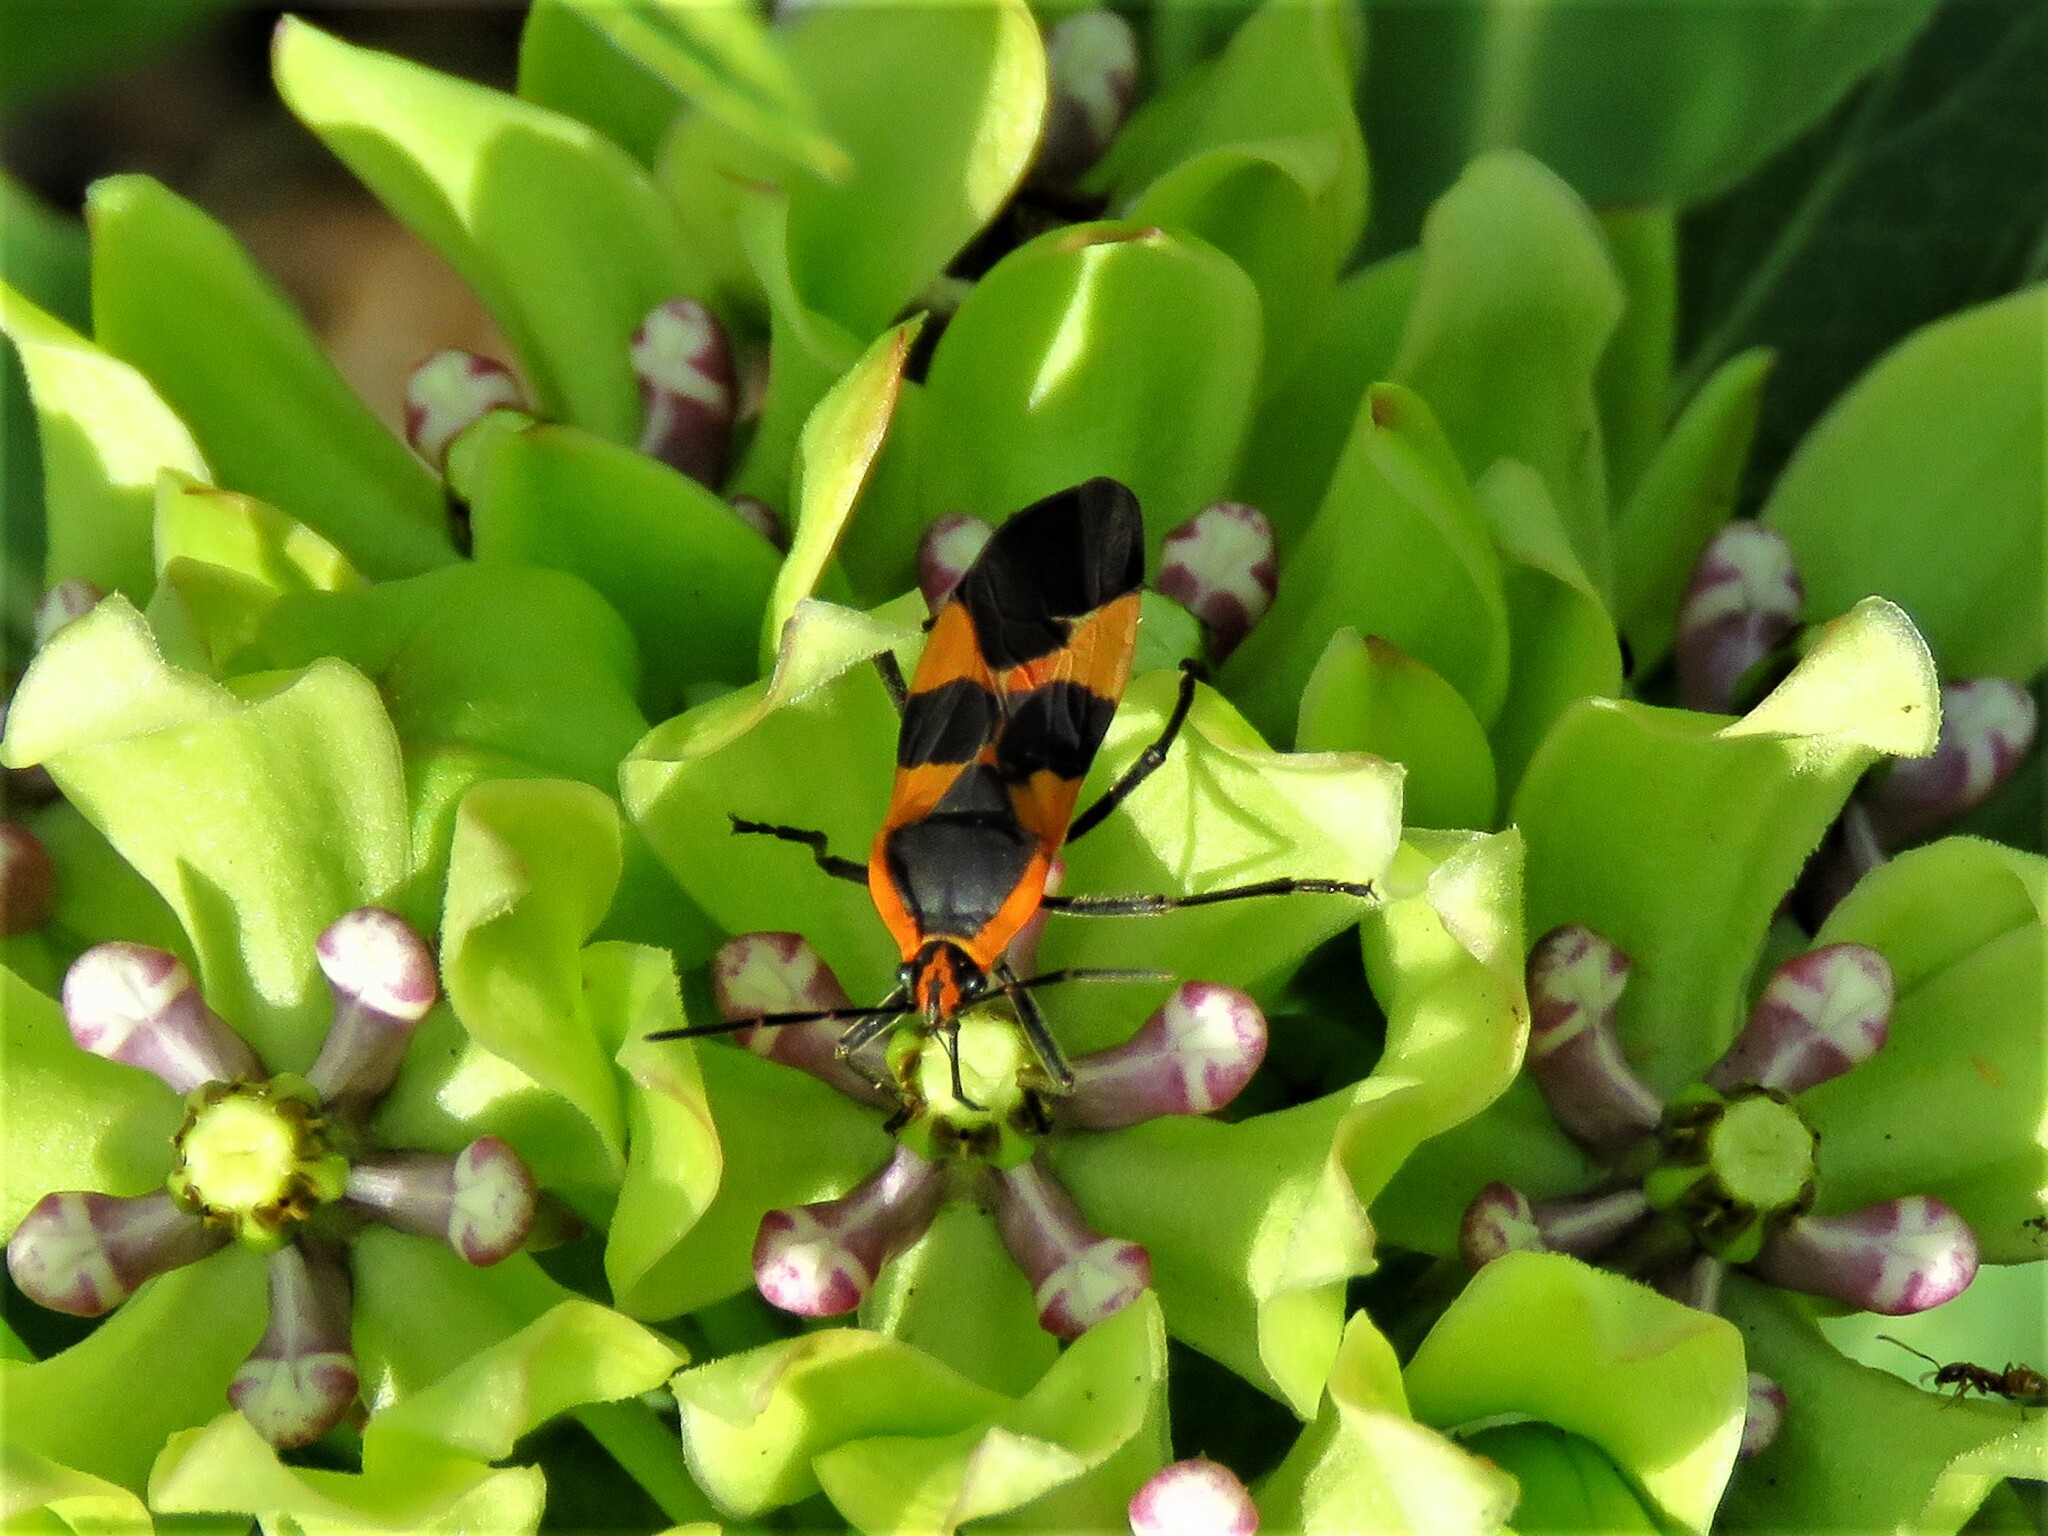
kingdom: Animalia
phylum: Arthropoda
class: Insecta
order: Hemiptera
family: Lygaeidae
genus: Oncopeltus
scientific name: Oncopeltus fasciatus
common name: Large milkweed bug
